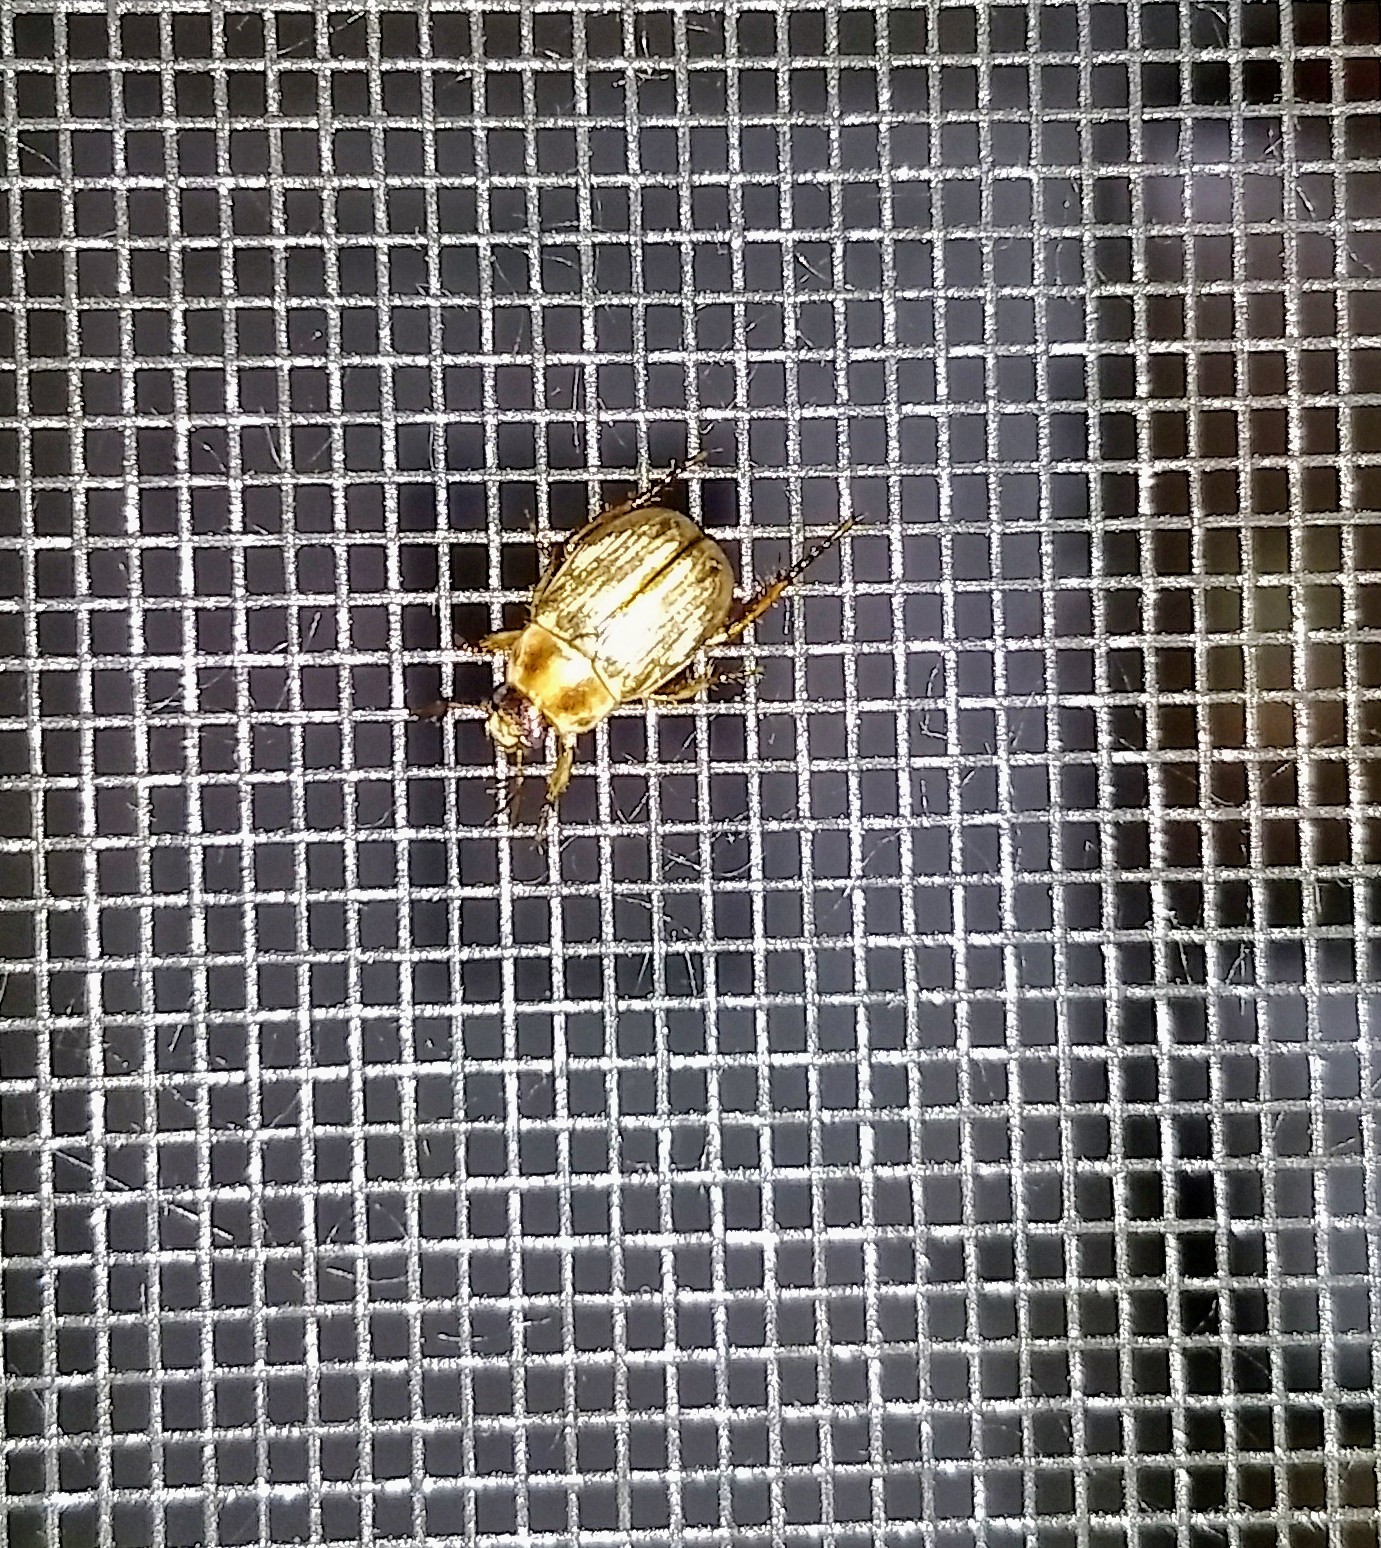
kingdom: Animalia
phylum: Arthropoda
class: Insecta
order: Coleoptera
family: Scarabaeidae
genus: Exomala
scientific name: Exomala orientalis
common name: Oriental beetle
